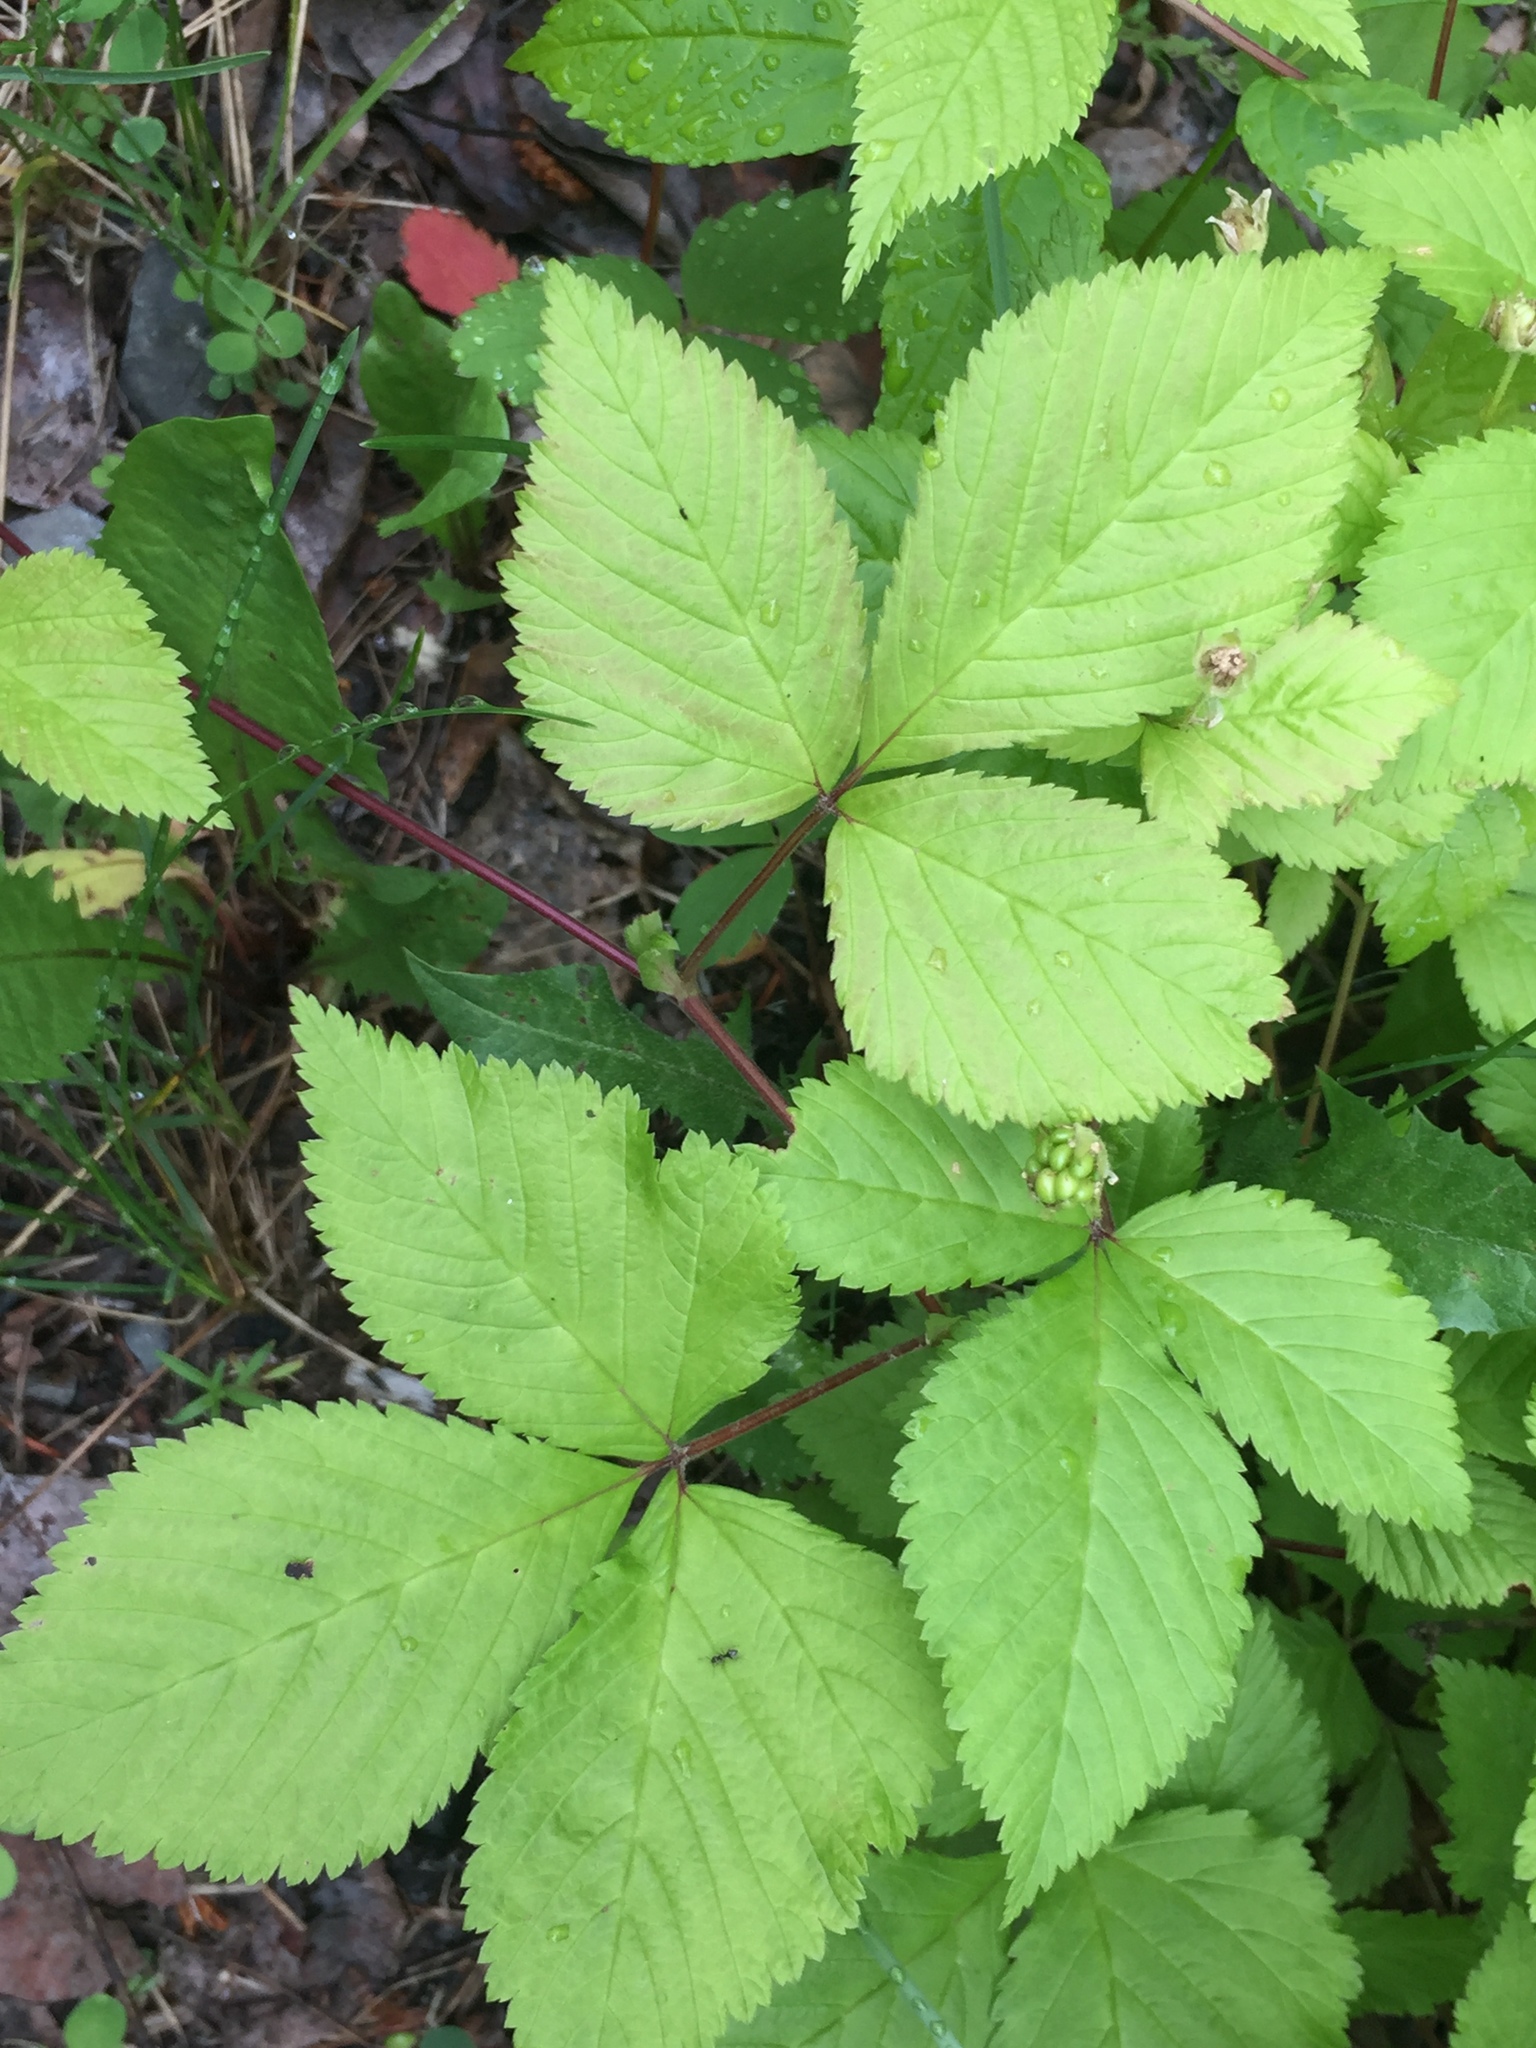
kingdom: Plantae
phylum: Tracheophyta
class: Magnoliopsida
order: Rosales
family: Rosaceae
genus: Rubus
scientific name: Rubus pubescens
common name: Dwarf raspberry
